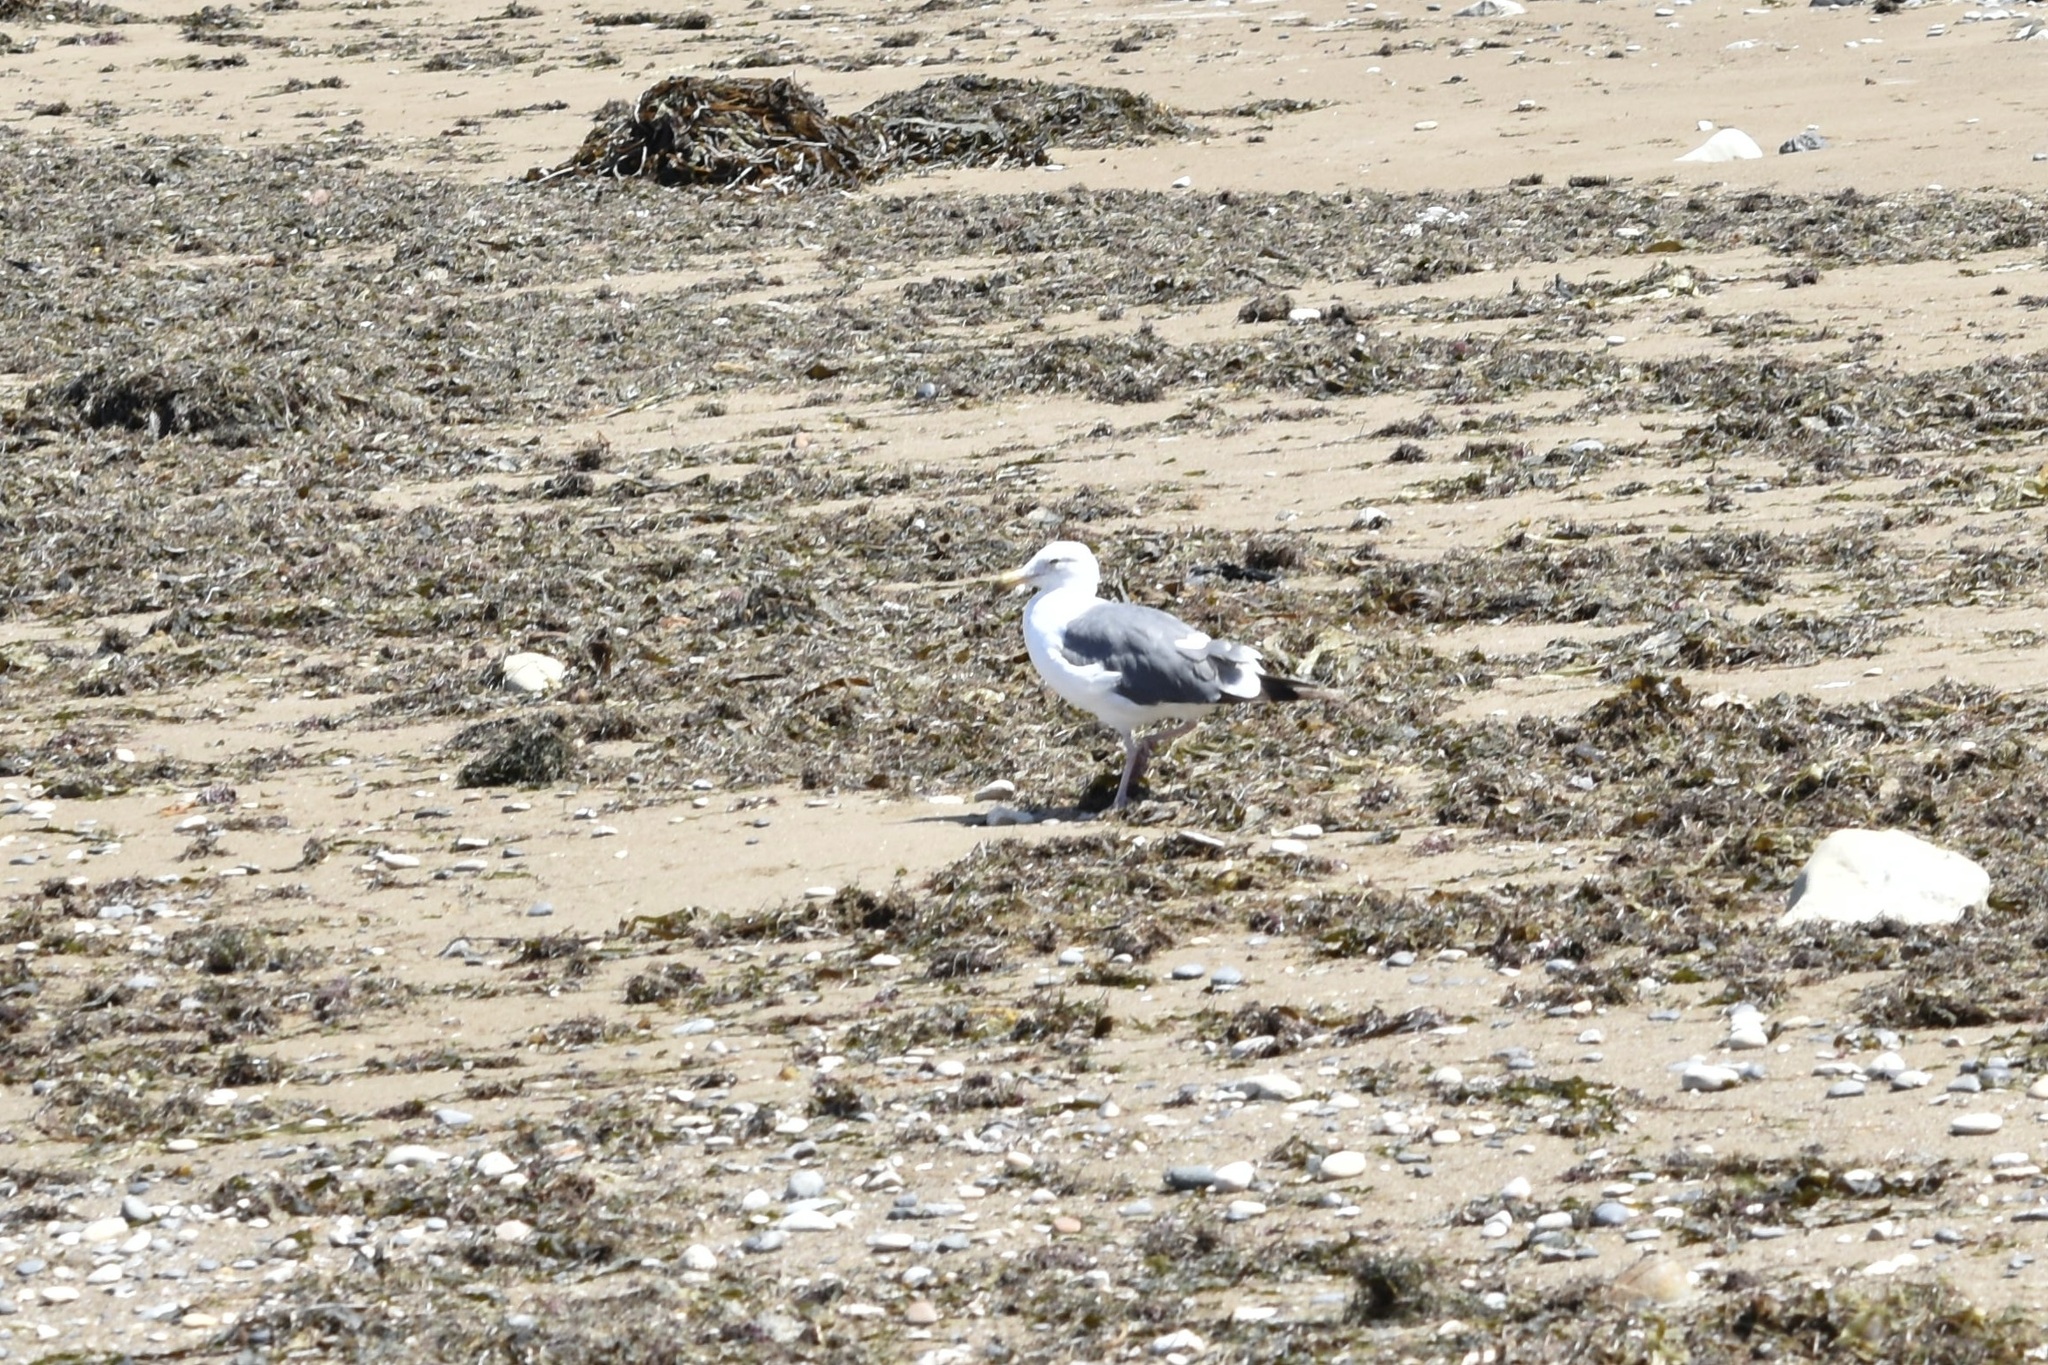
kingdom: Animalia
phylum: Chordata
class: Aves
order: Charadriiformes
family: Laridae
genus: Larus
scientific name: Larus occidentalis
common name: Western gull
